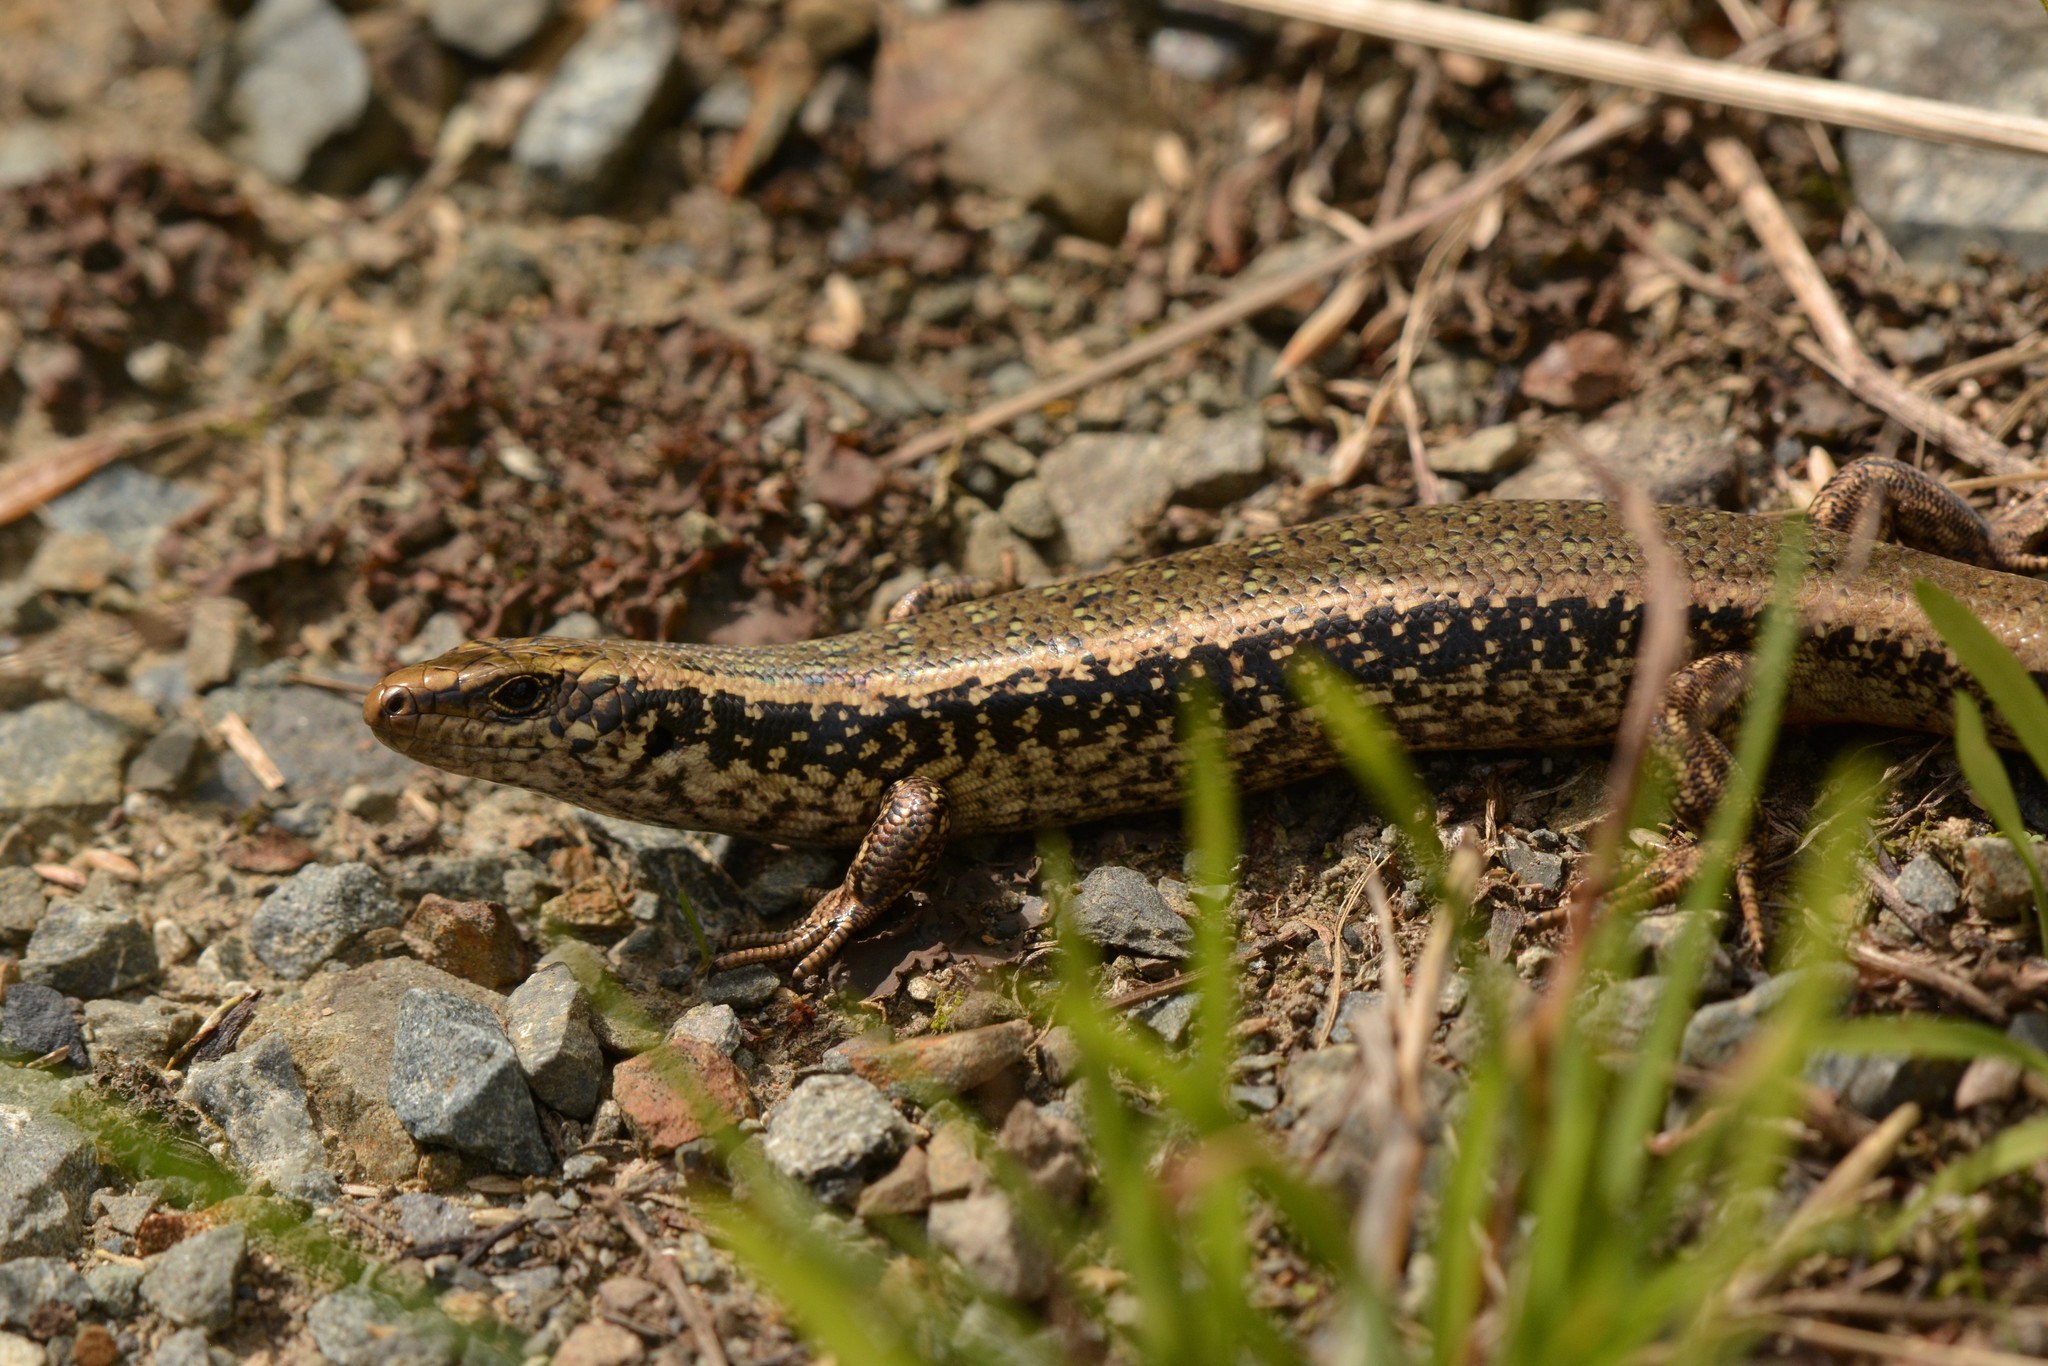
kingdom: Animalia
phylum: Chordata
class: Squamata
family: Scincidae
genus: Oligosoma
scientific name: Oligosoma kokowai
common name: Northern spotted skink
